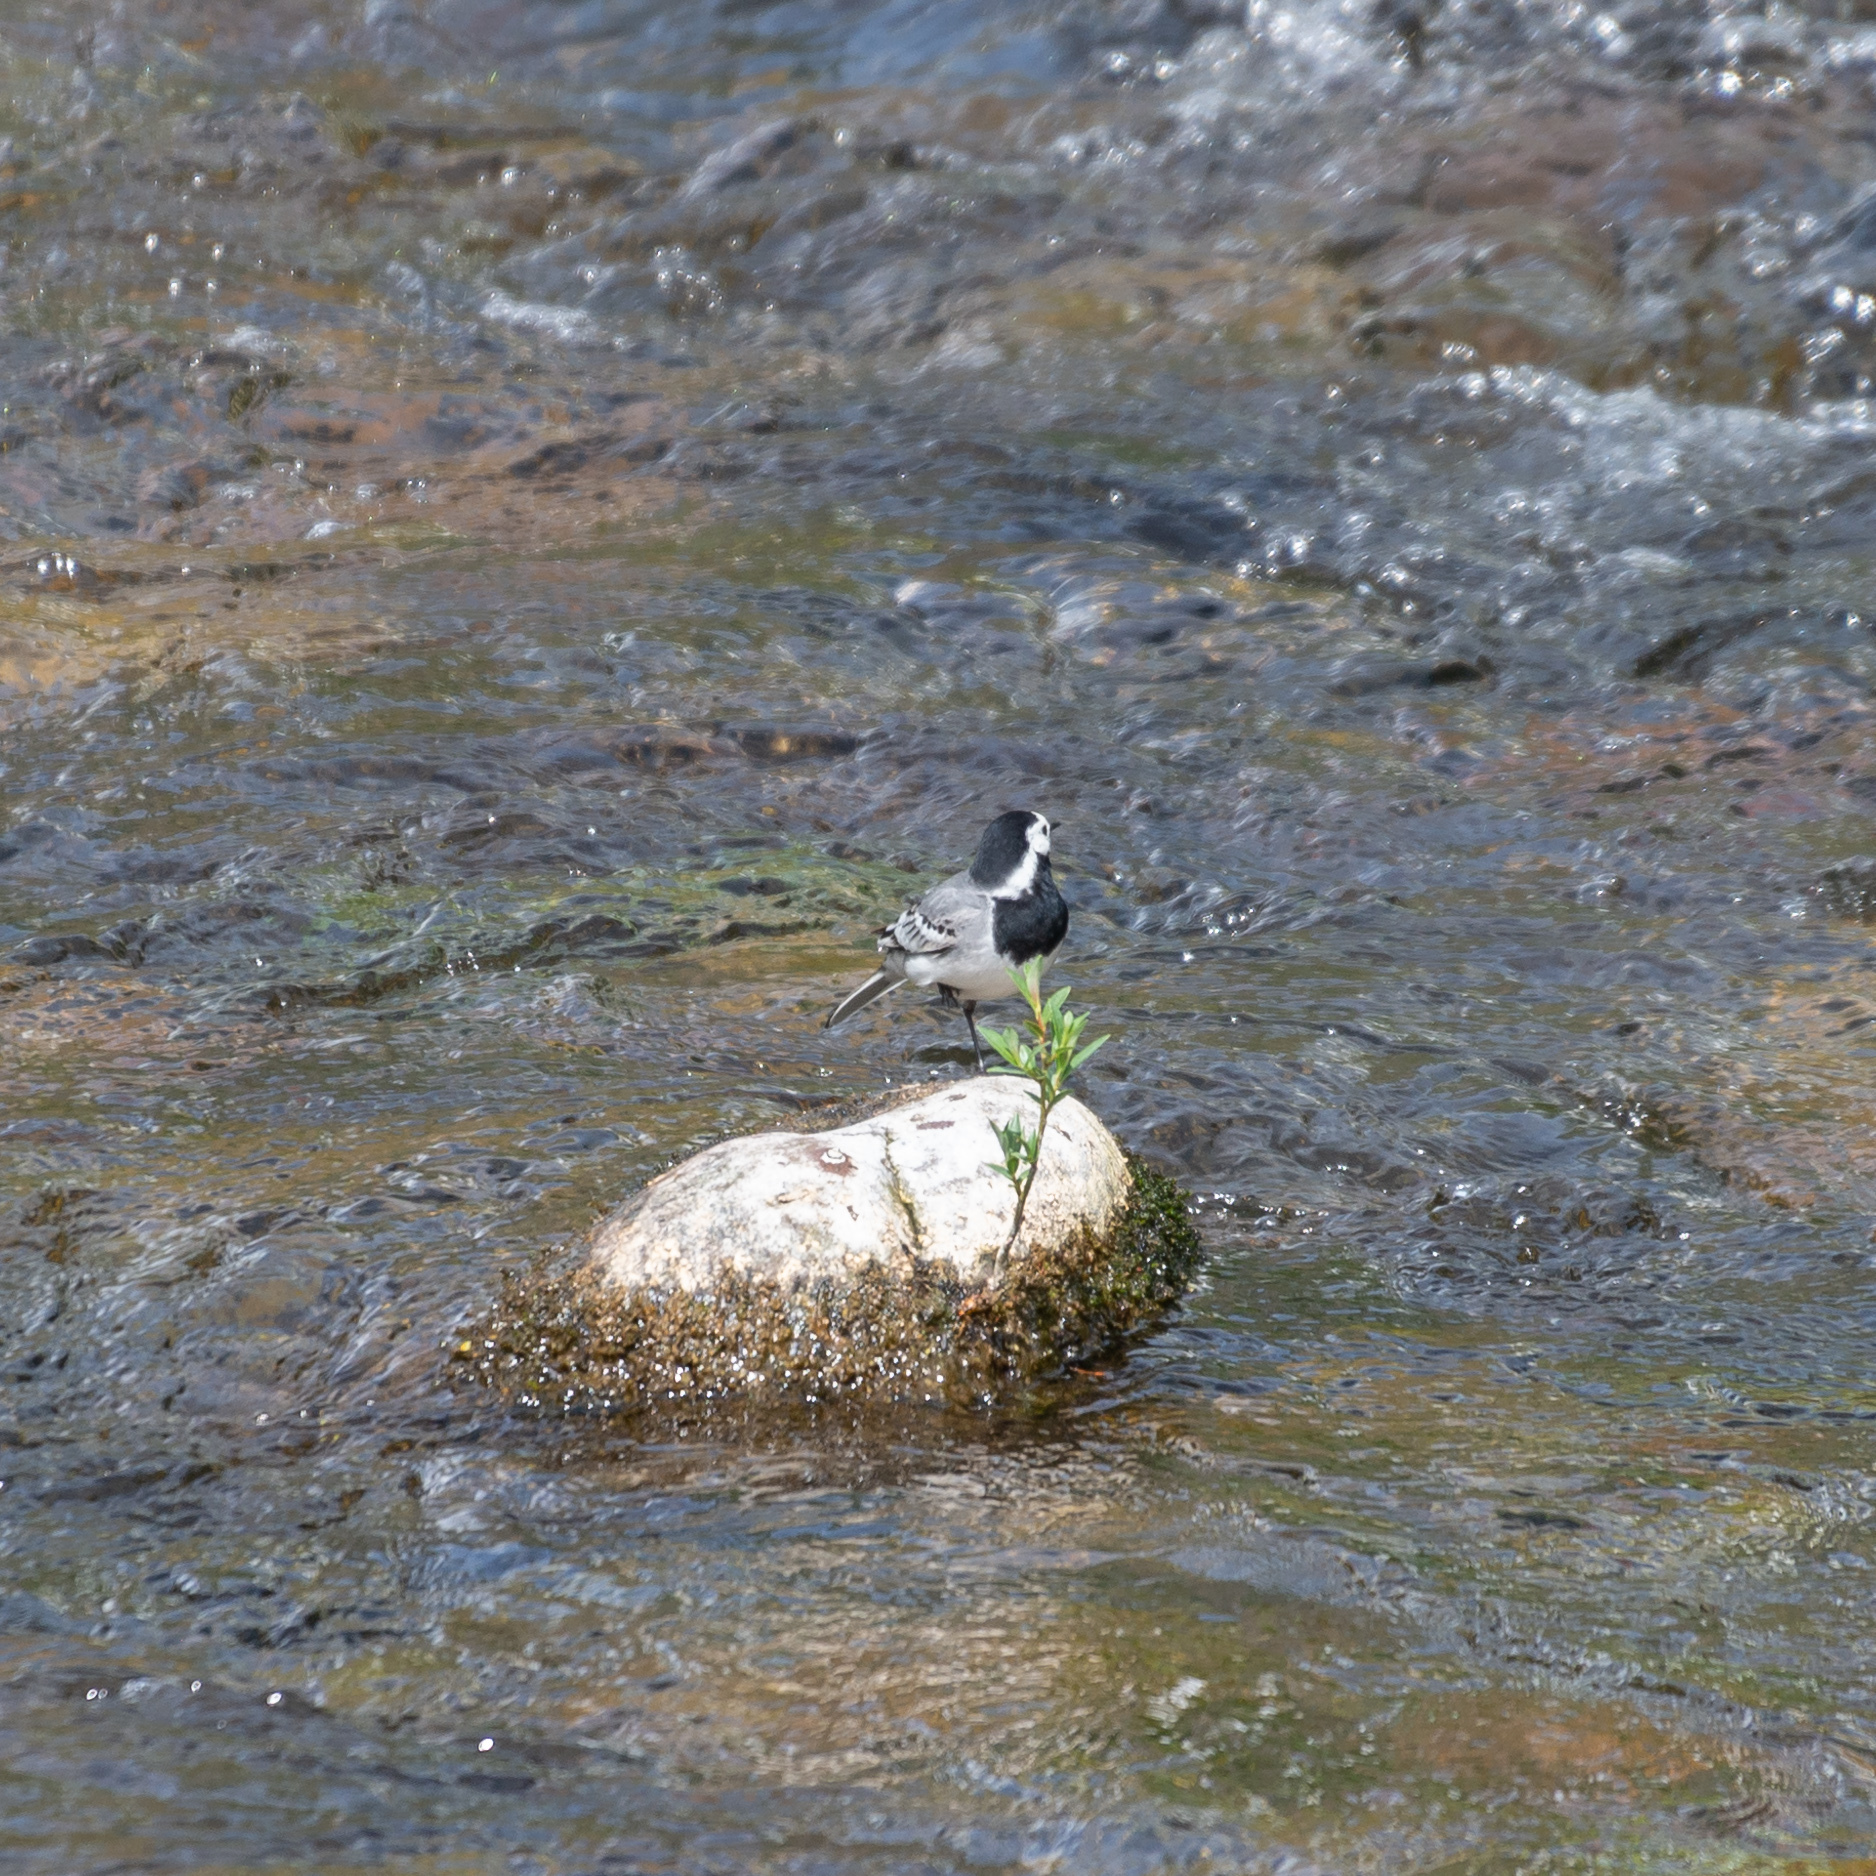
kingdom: Animalia
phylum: Chordata
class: Aves
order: Passeriformes
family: Motacillidae
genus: Motacilla
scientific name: Motacilla alba
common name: White wagtail
